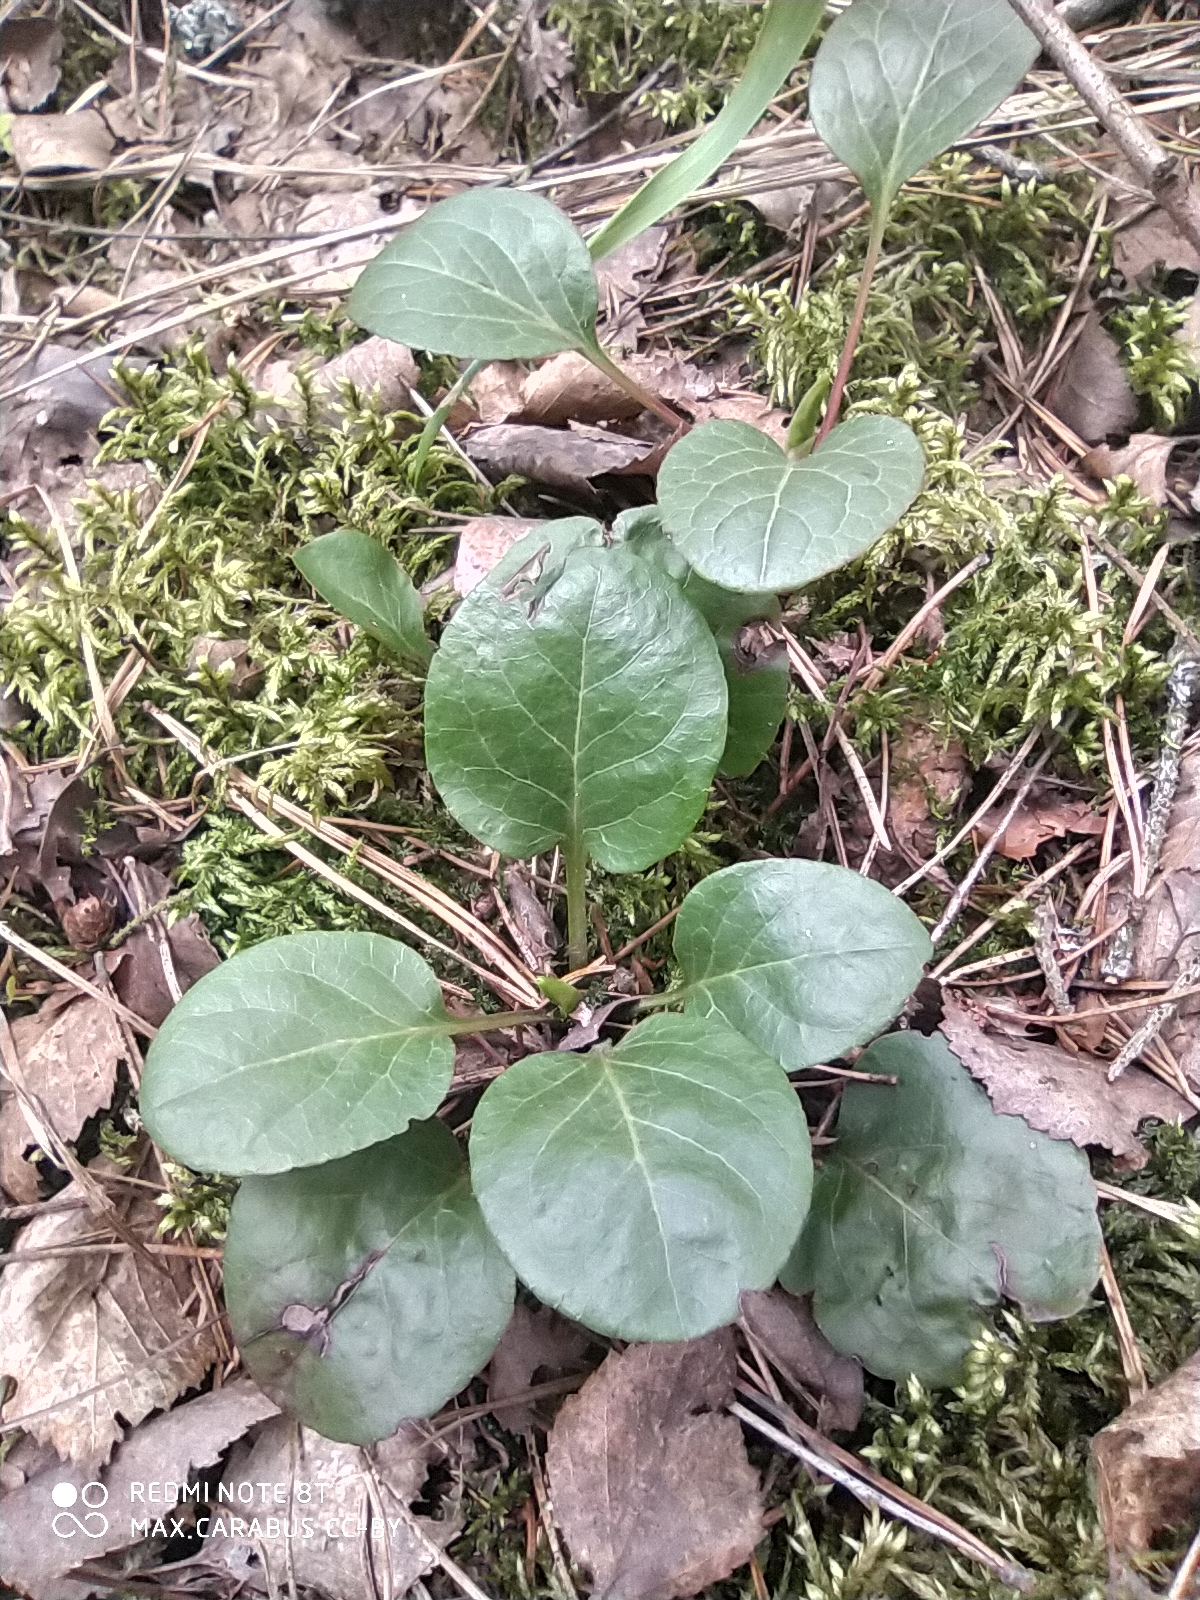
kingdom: Plantae
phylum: Tracheophyta
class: Magnoliopsida
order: Ericales
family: Ericaceae
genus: Pyrola
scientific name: Pyrola rotundifolia
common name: Round-leaved wintergreen
